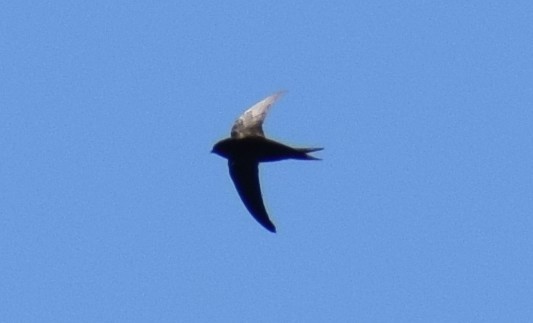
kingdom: Animalia
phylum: Chordata
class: Aves
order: Apodiformes
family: Apodidae
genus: Apus
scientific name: Apus apus
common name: Common swift
